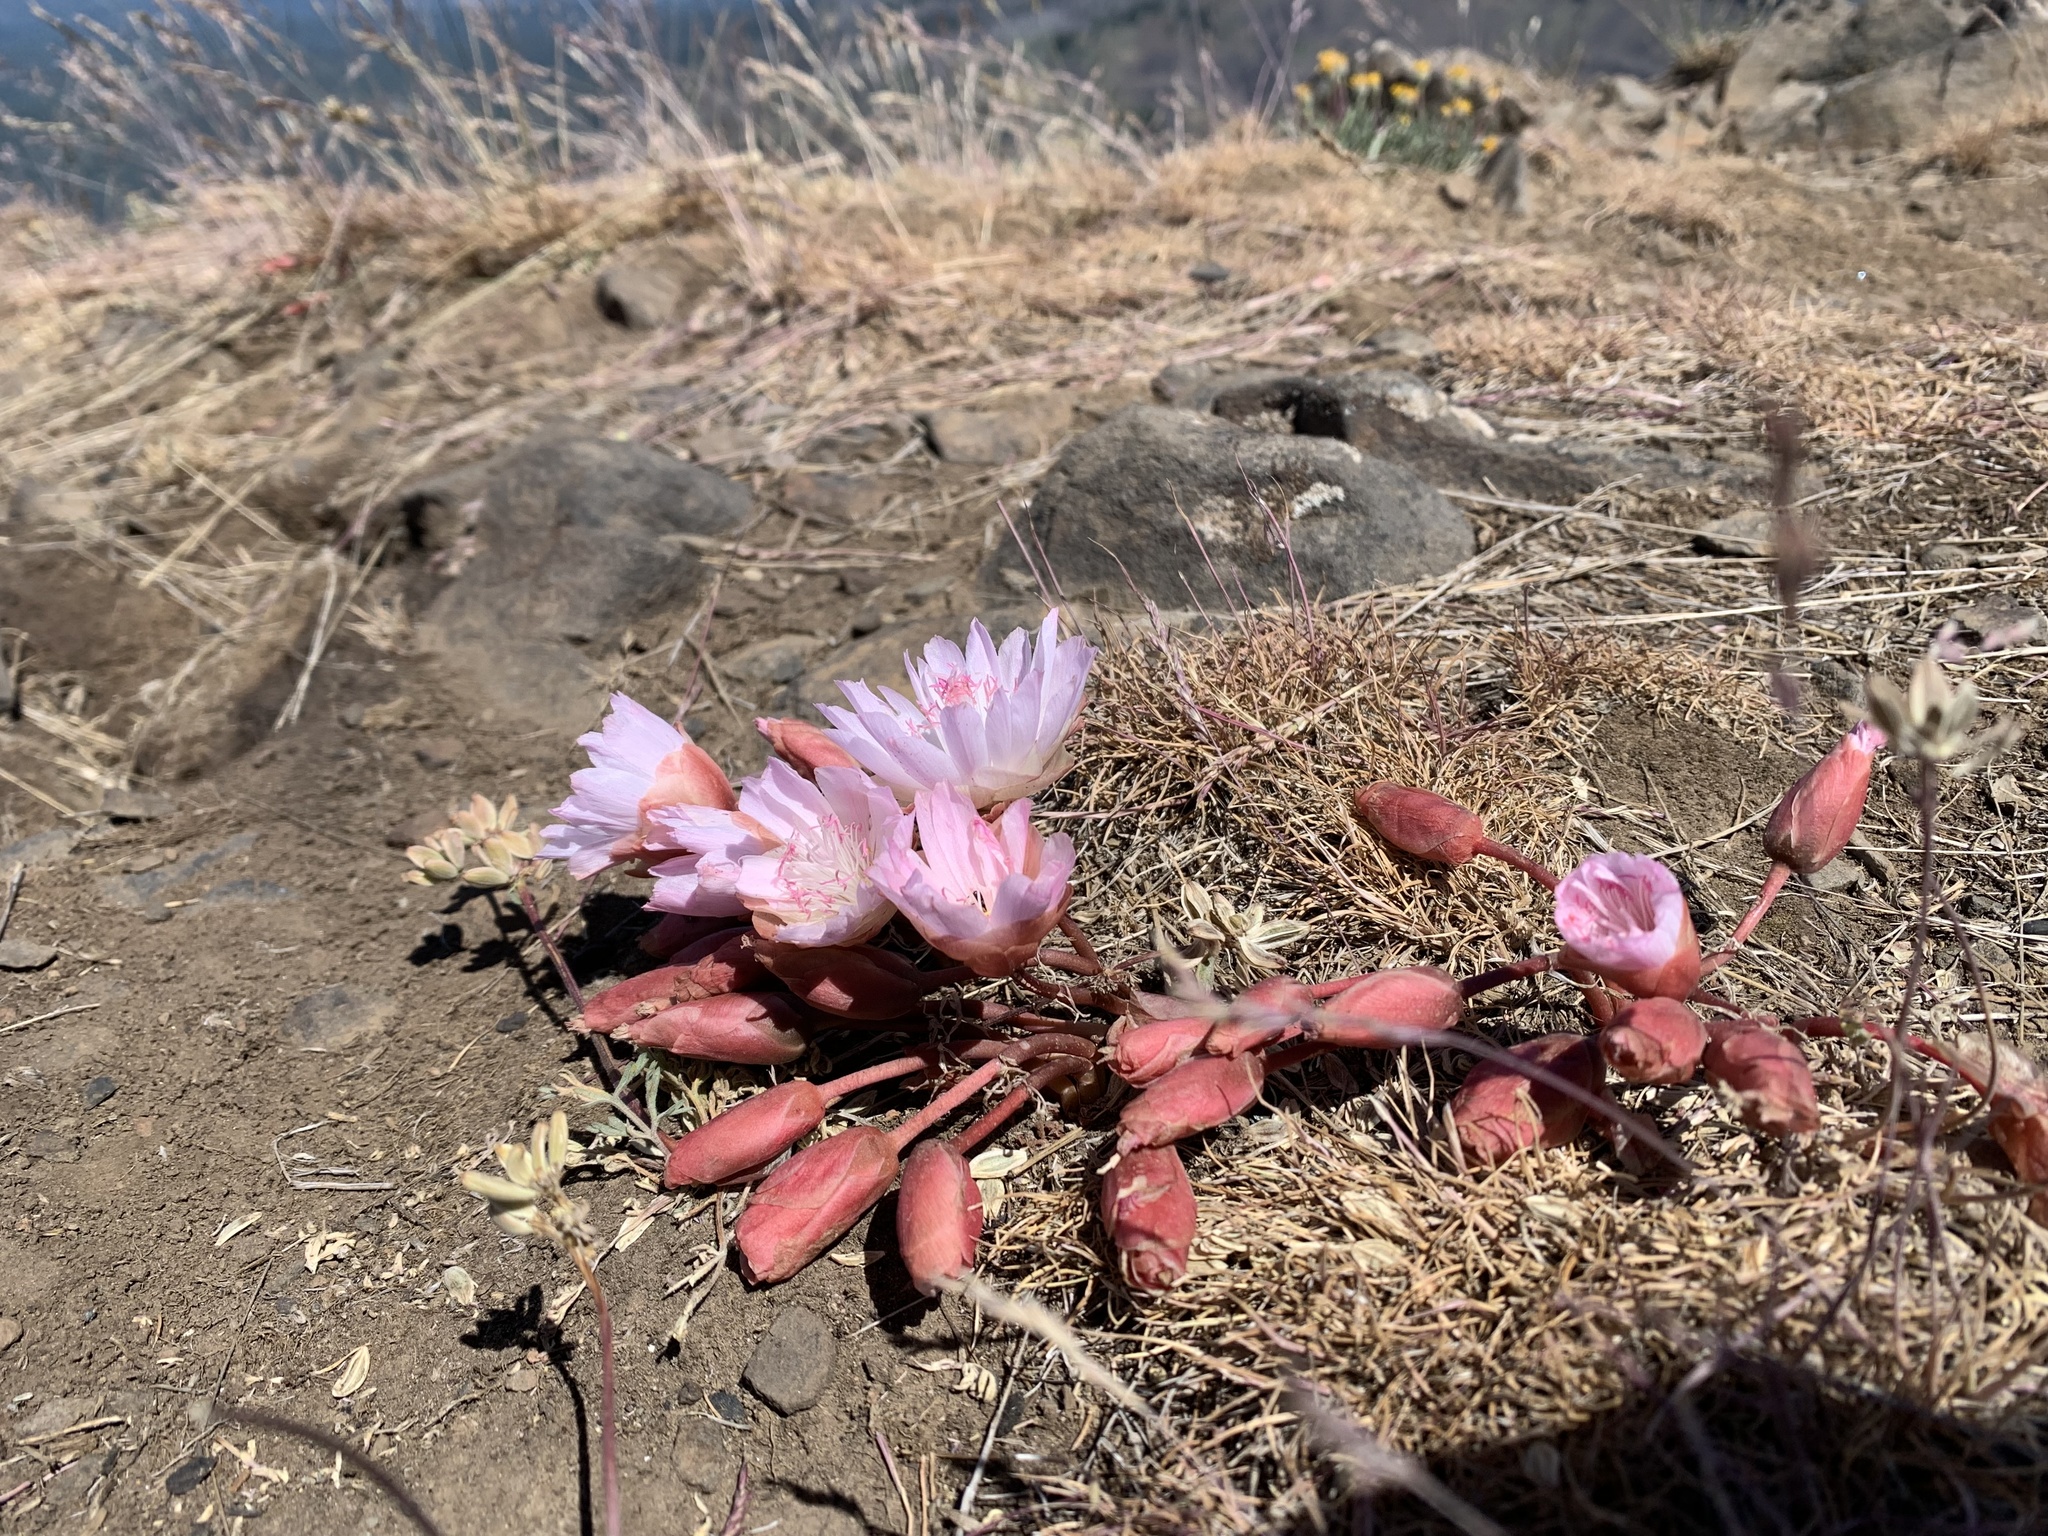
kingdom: Plantae
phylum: Tracheophyta
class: Magnoliopsida
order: Caryophyllales
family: Montiaceae
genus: Lewisia
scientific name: Lewisia rediviva
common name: Bitter-root
